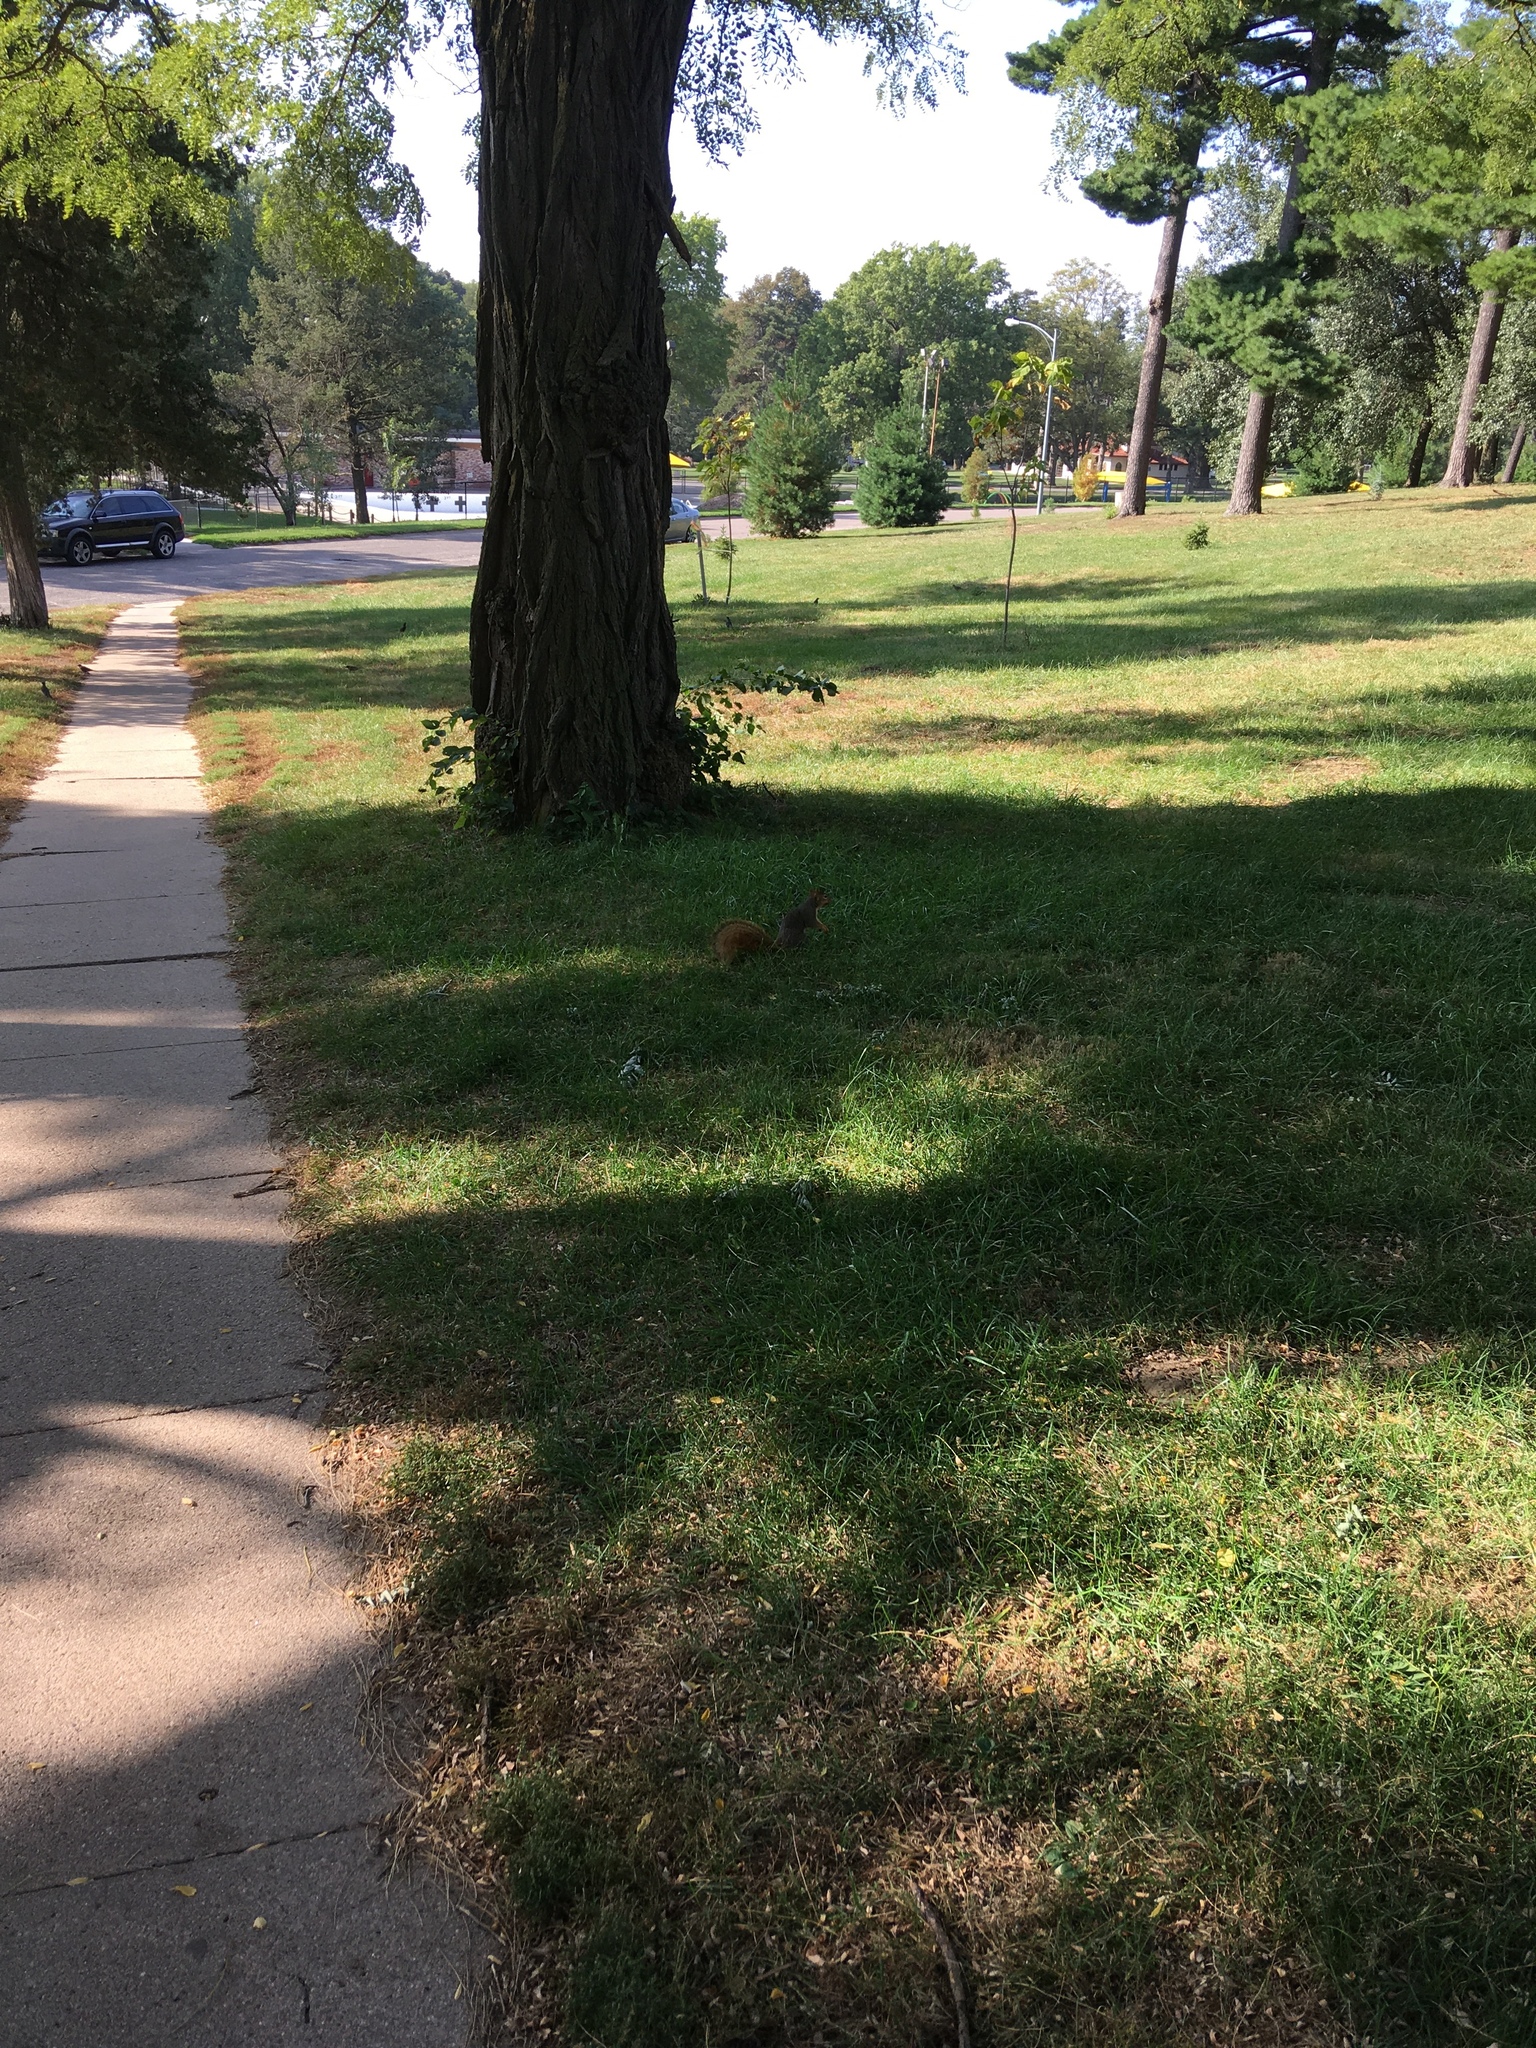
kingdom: Animalia
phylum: Chordata
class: Mammalia
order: Rodentia
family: Sciuridae
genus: Sciurus
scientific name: Sciurus niger
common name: Fox squirrel
